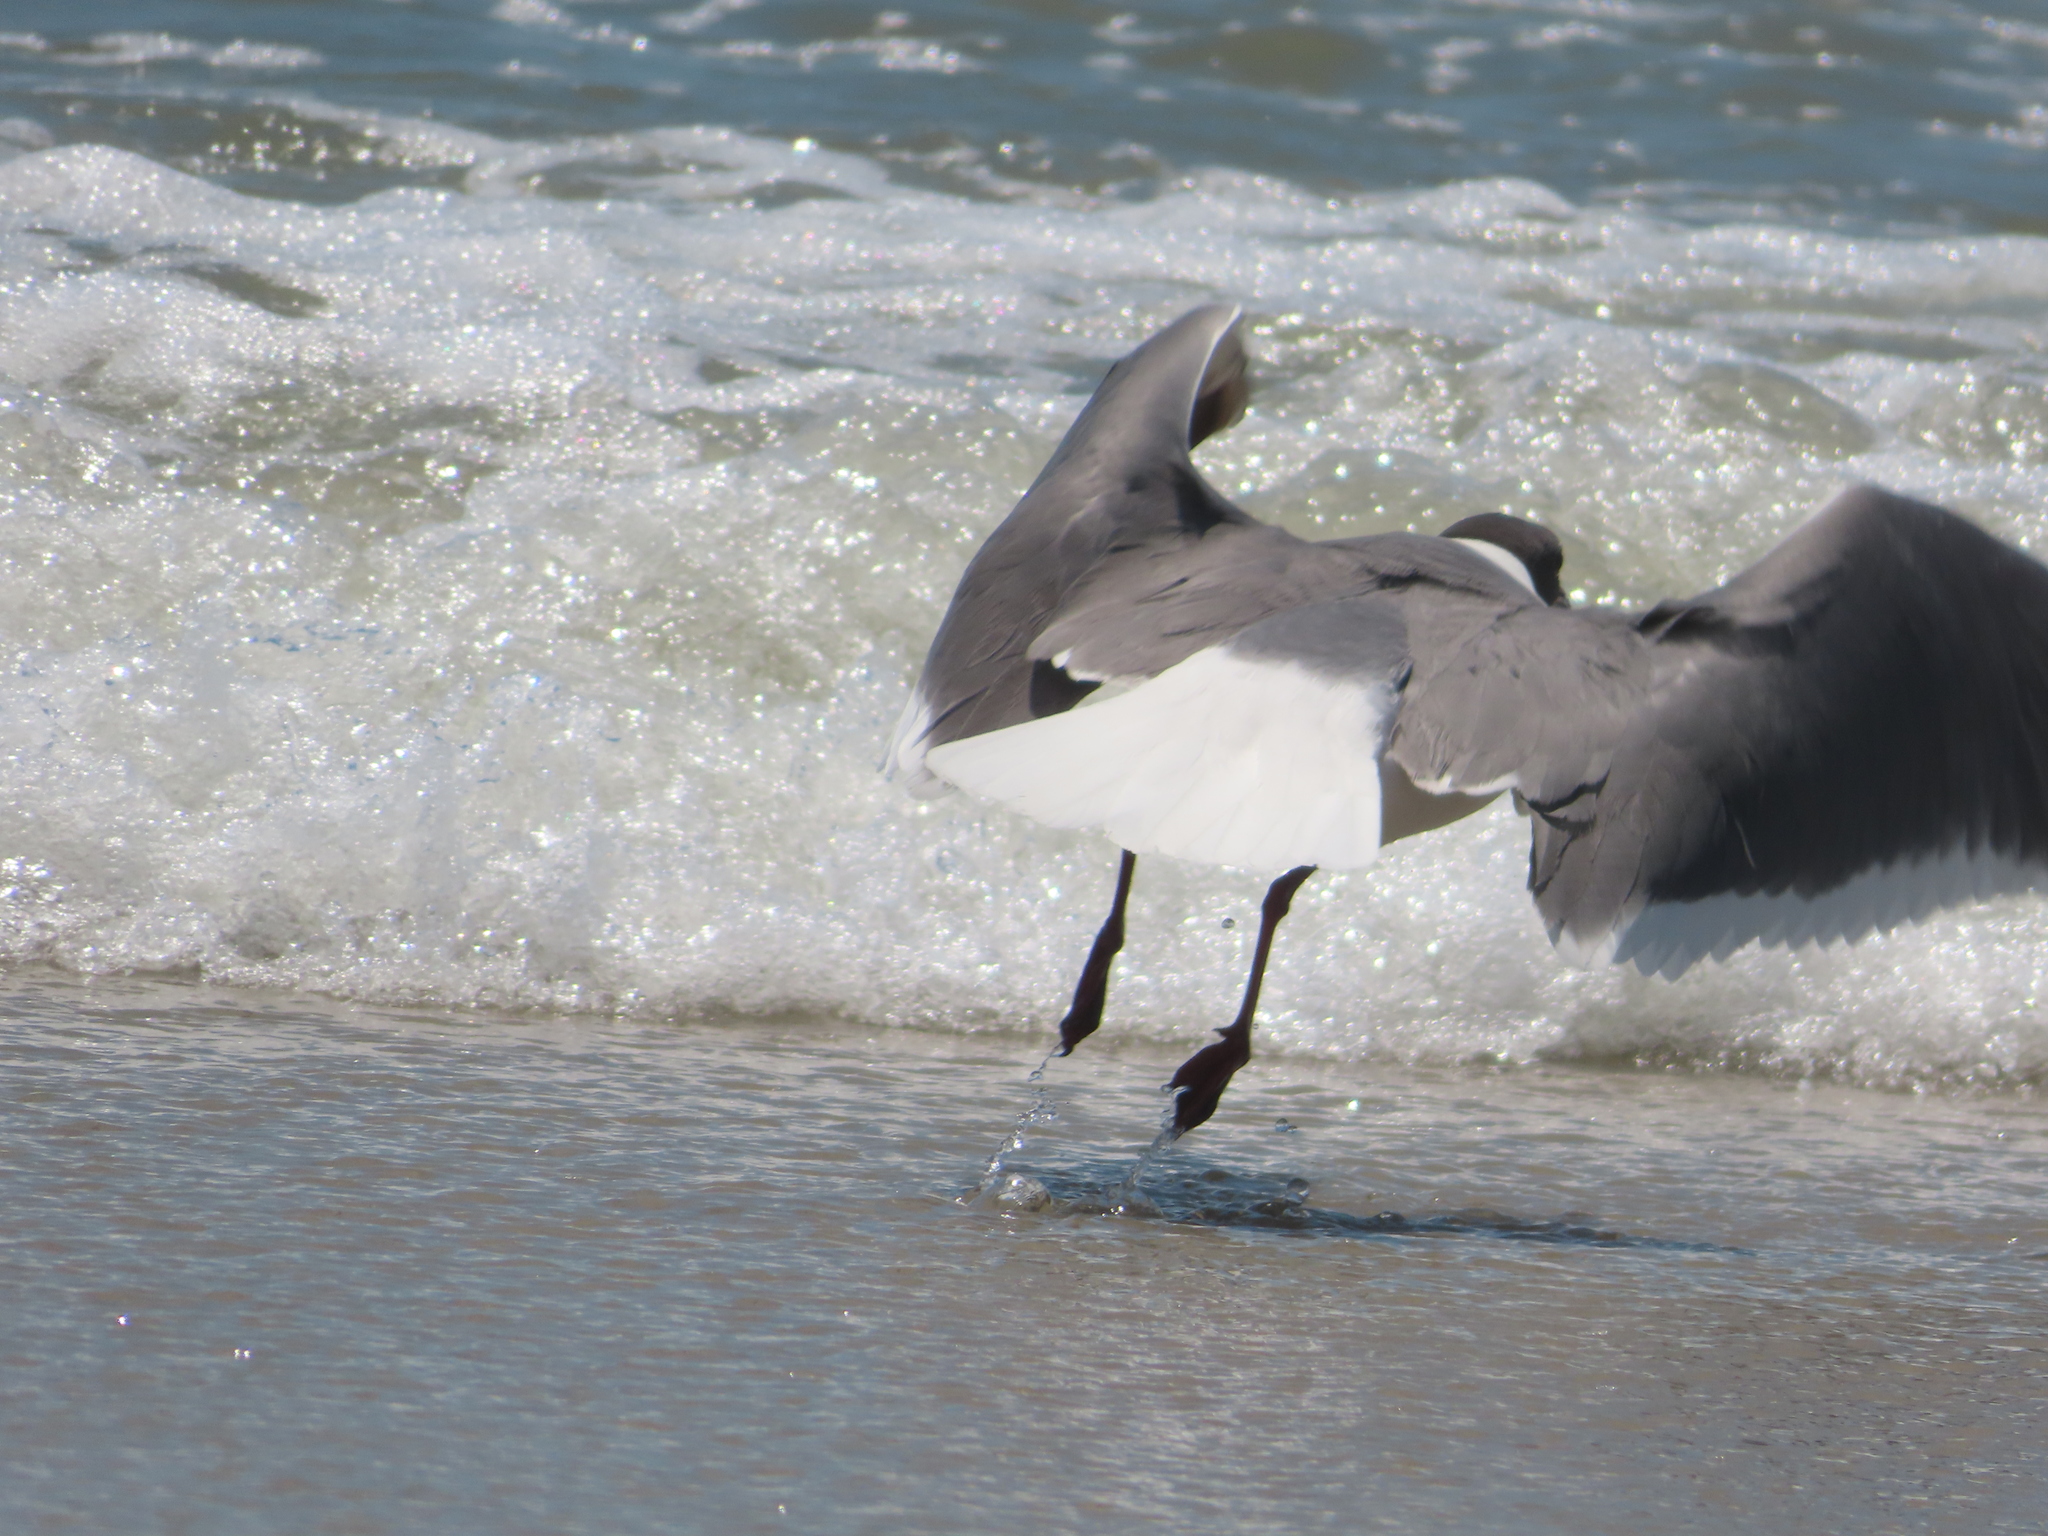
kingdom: Animalia
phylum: Chordata
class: Aves
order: Charadriiformes
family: Laridae
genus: Leucophaeus
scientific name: Leucophaeus atricilla
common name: Laughing gull
